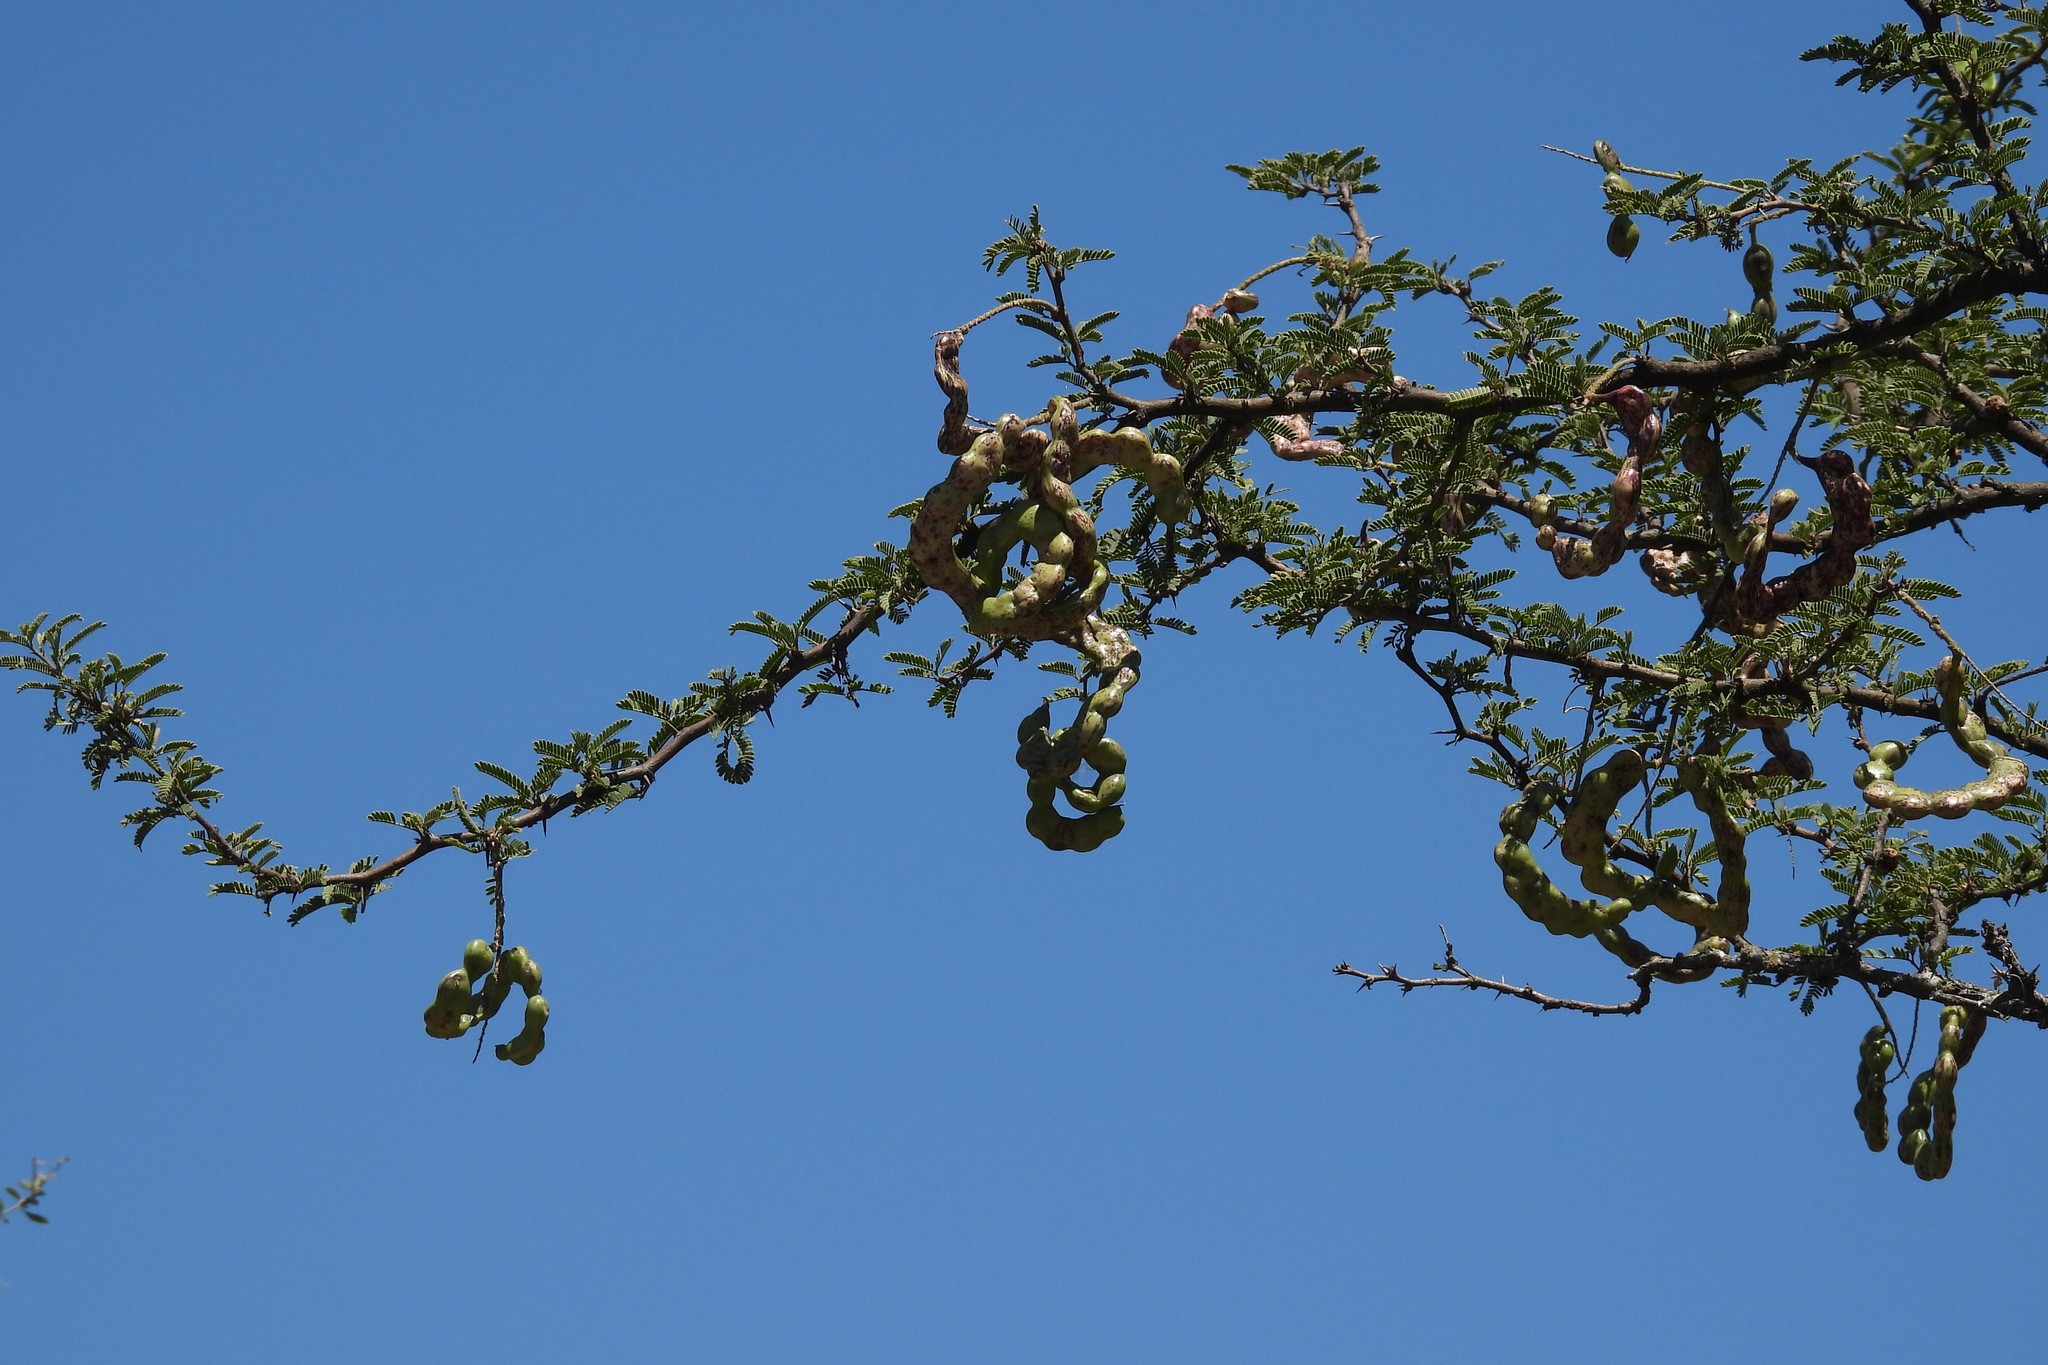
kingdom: Plantae
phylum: Tracheophyta
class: Magnoliopsida
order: Fabales
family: Fabaceae
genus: Prosopis
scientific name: Prosopis affinis
